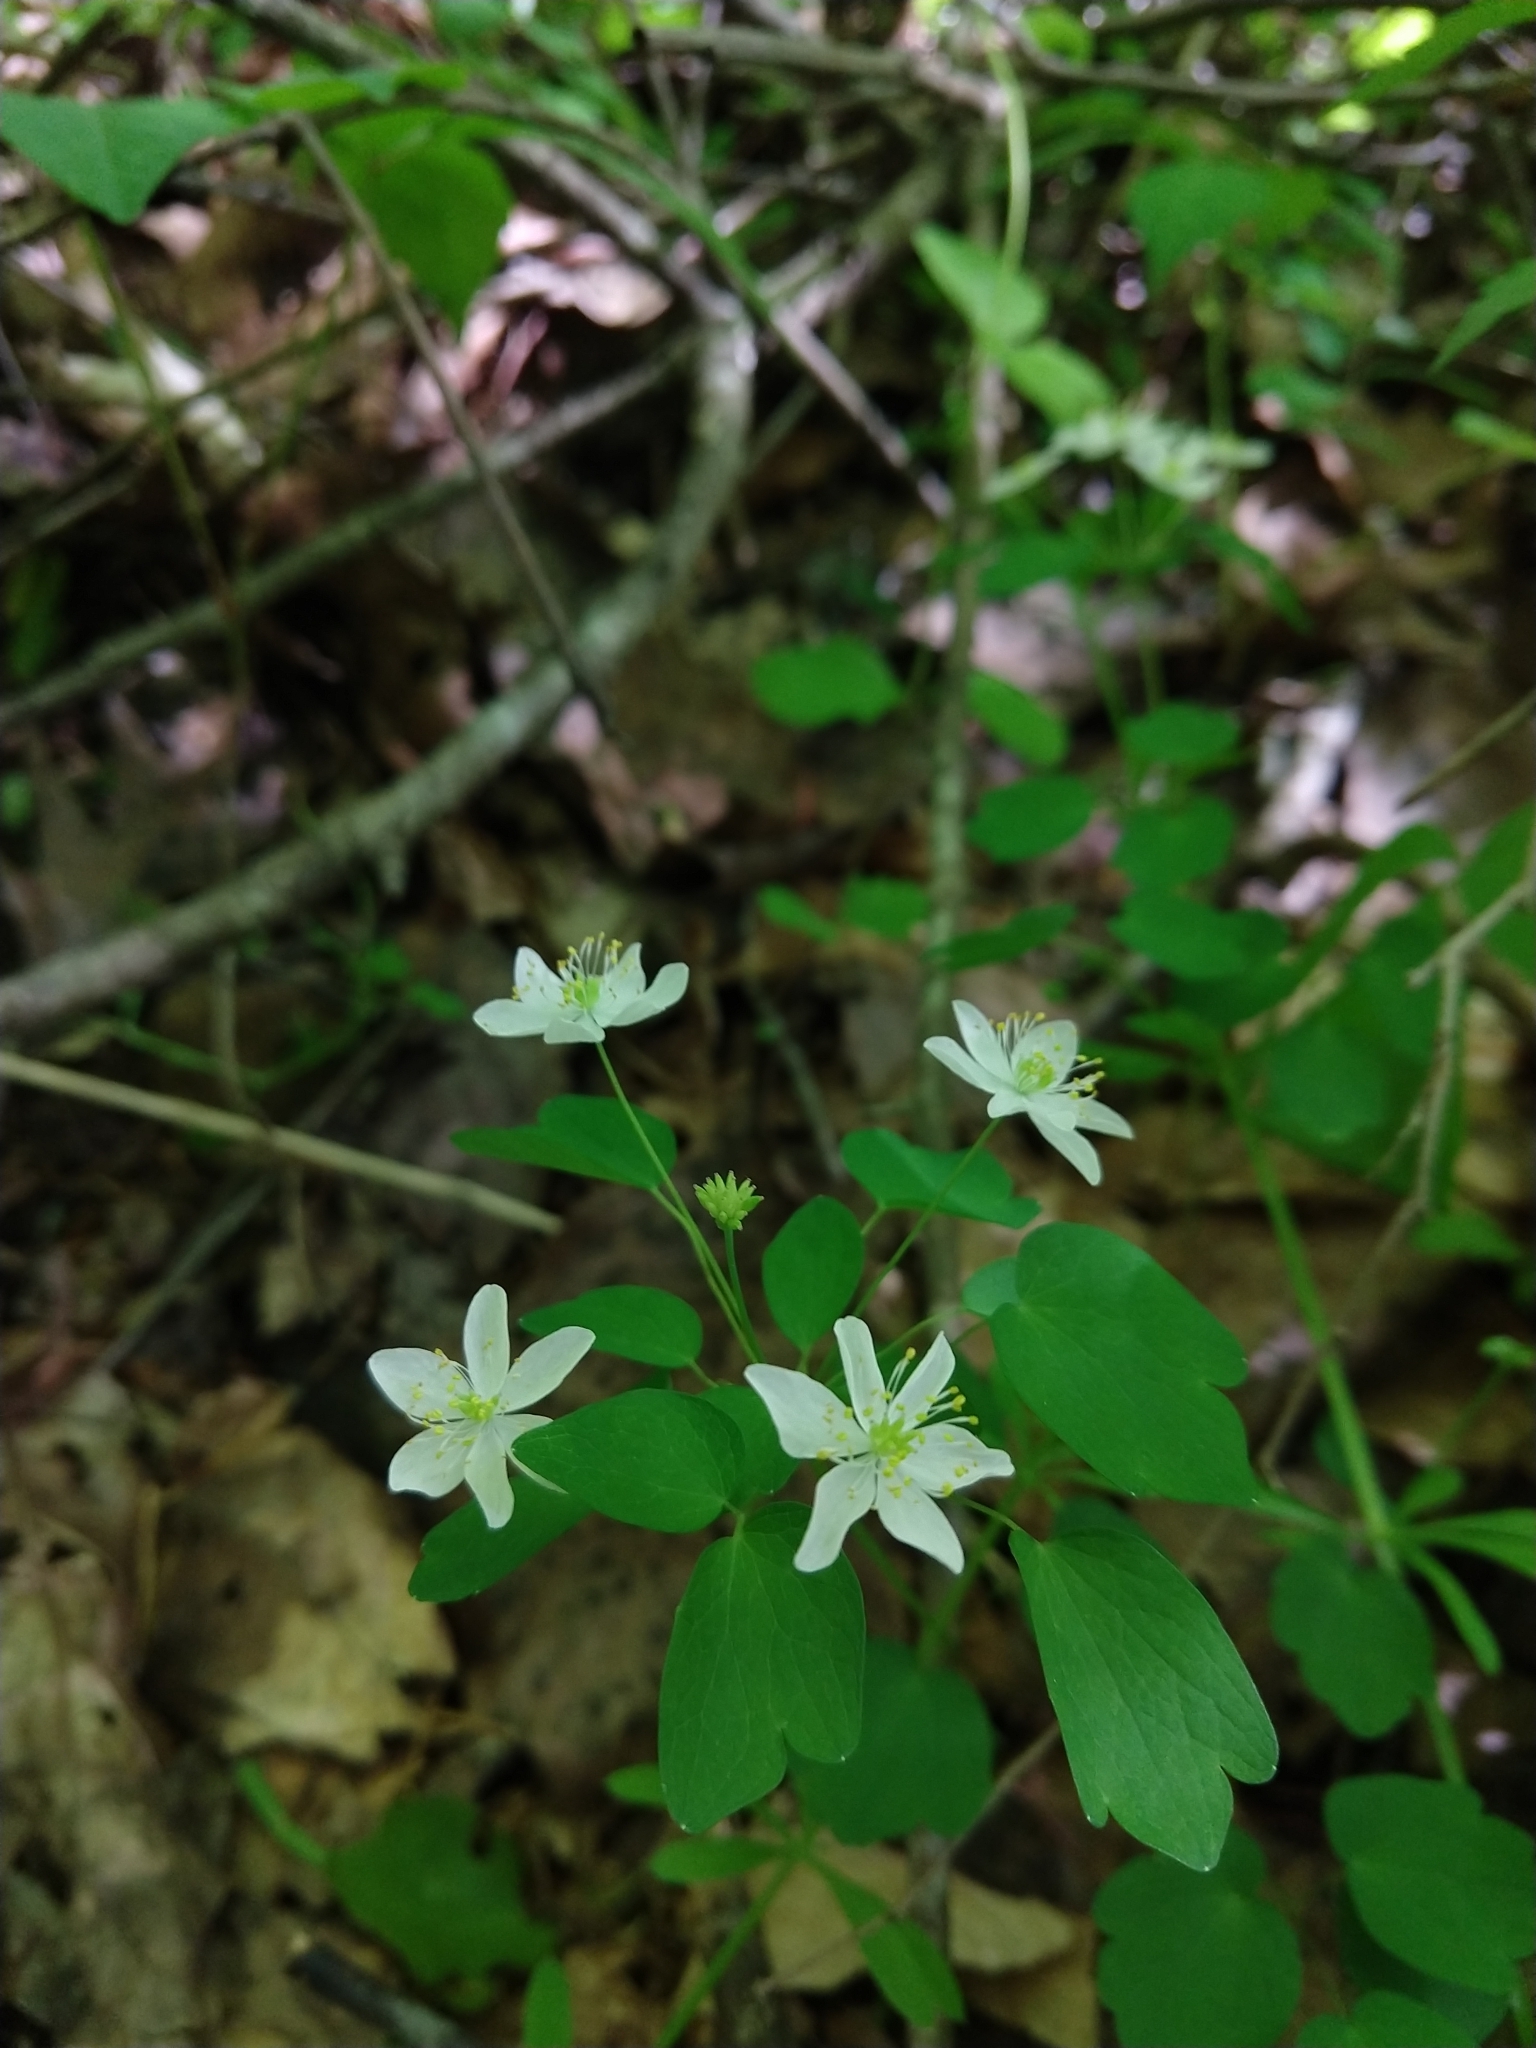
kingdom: Plantae
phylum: Tracheophyta
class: Magnoliopsida
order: Ranunculales
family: Ranunculaceae
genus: Thalictrum
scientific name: Thalictrum thalictroides
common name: Rue-anemone
